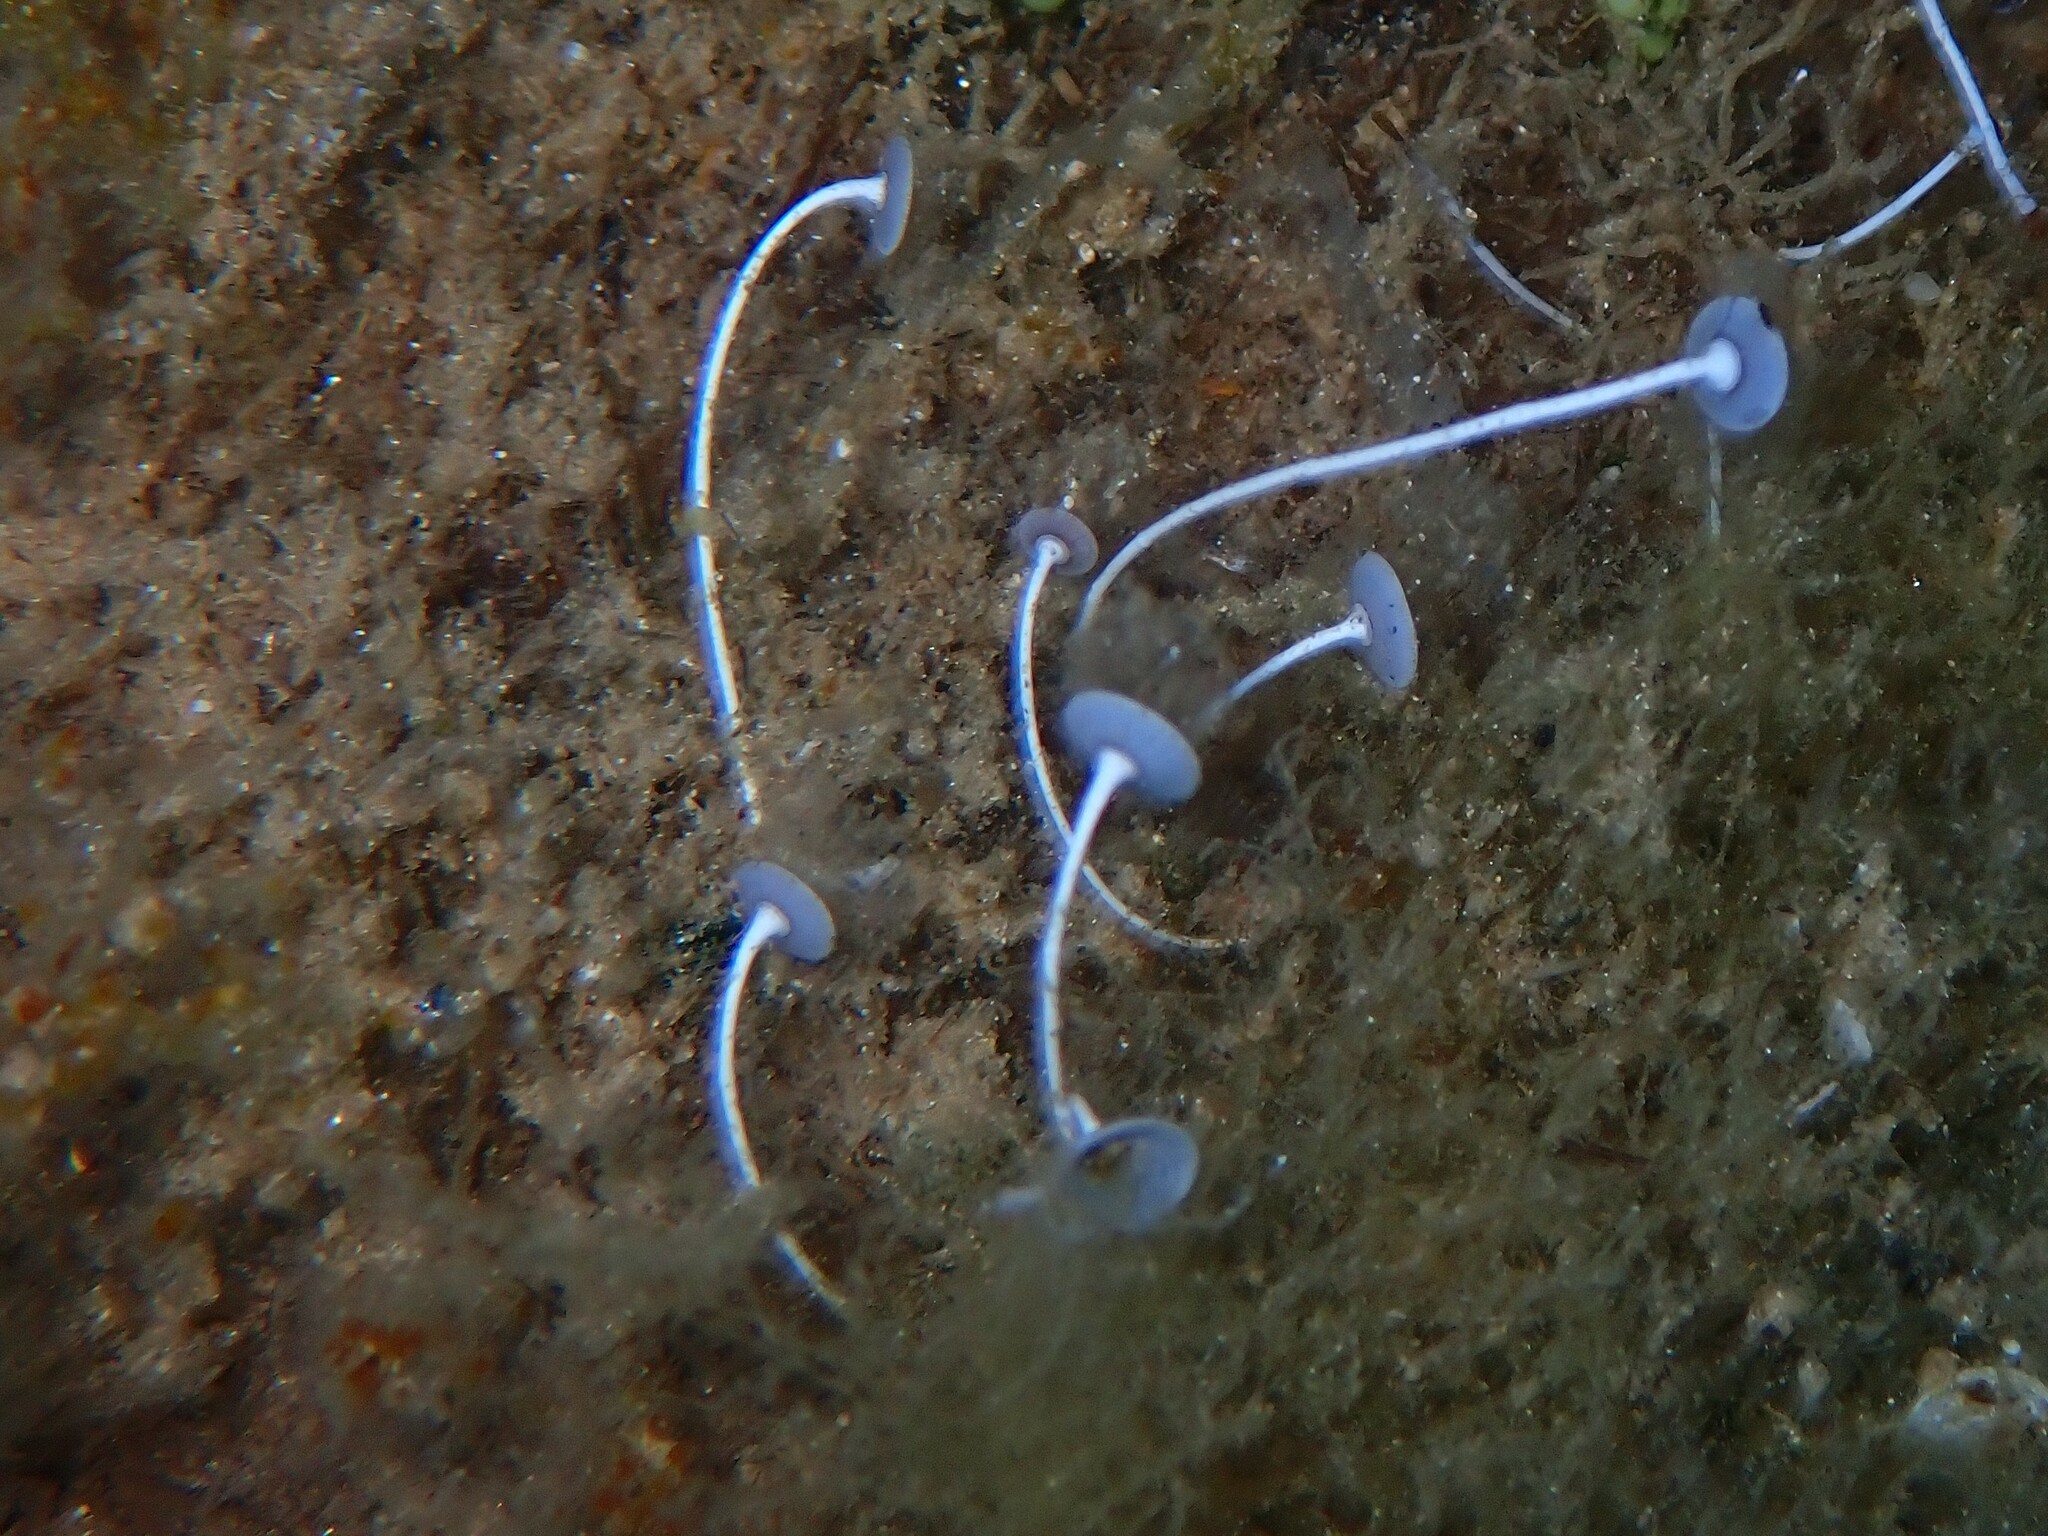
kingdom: Plantae
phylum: Chlorophyta
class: Ulvophyceae
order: Dasycladales
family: Polyphysaceae
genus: Acetabularia
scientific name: Acetabularia acetabulum
